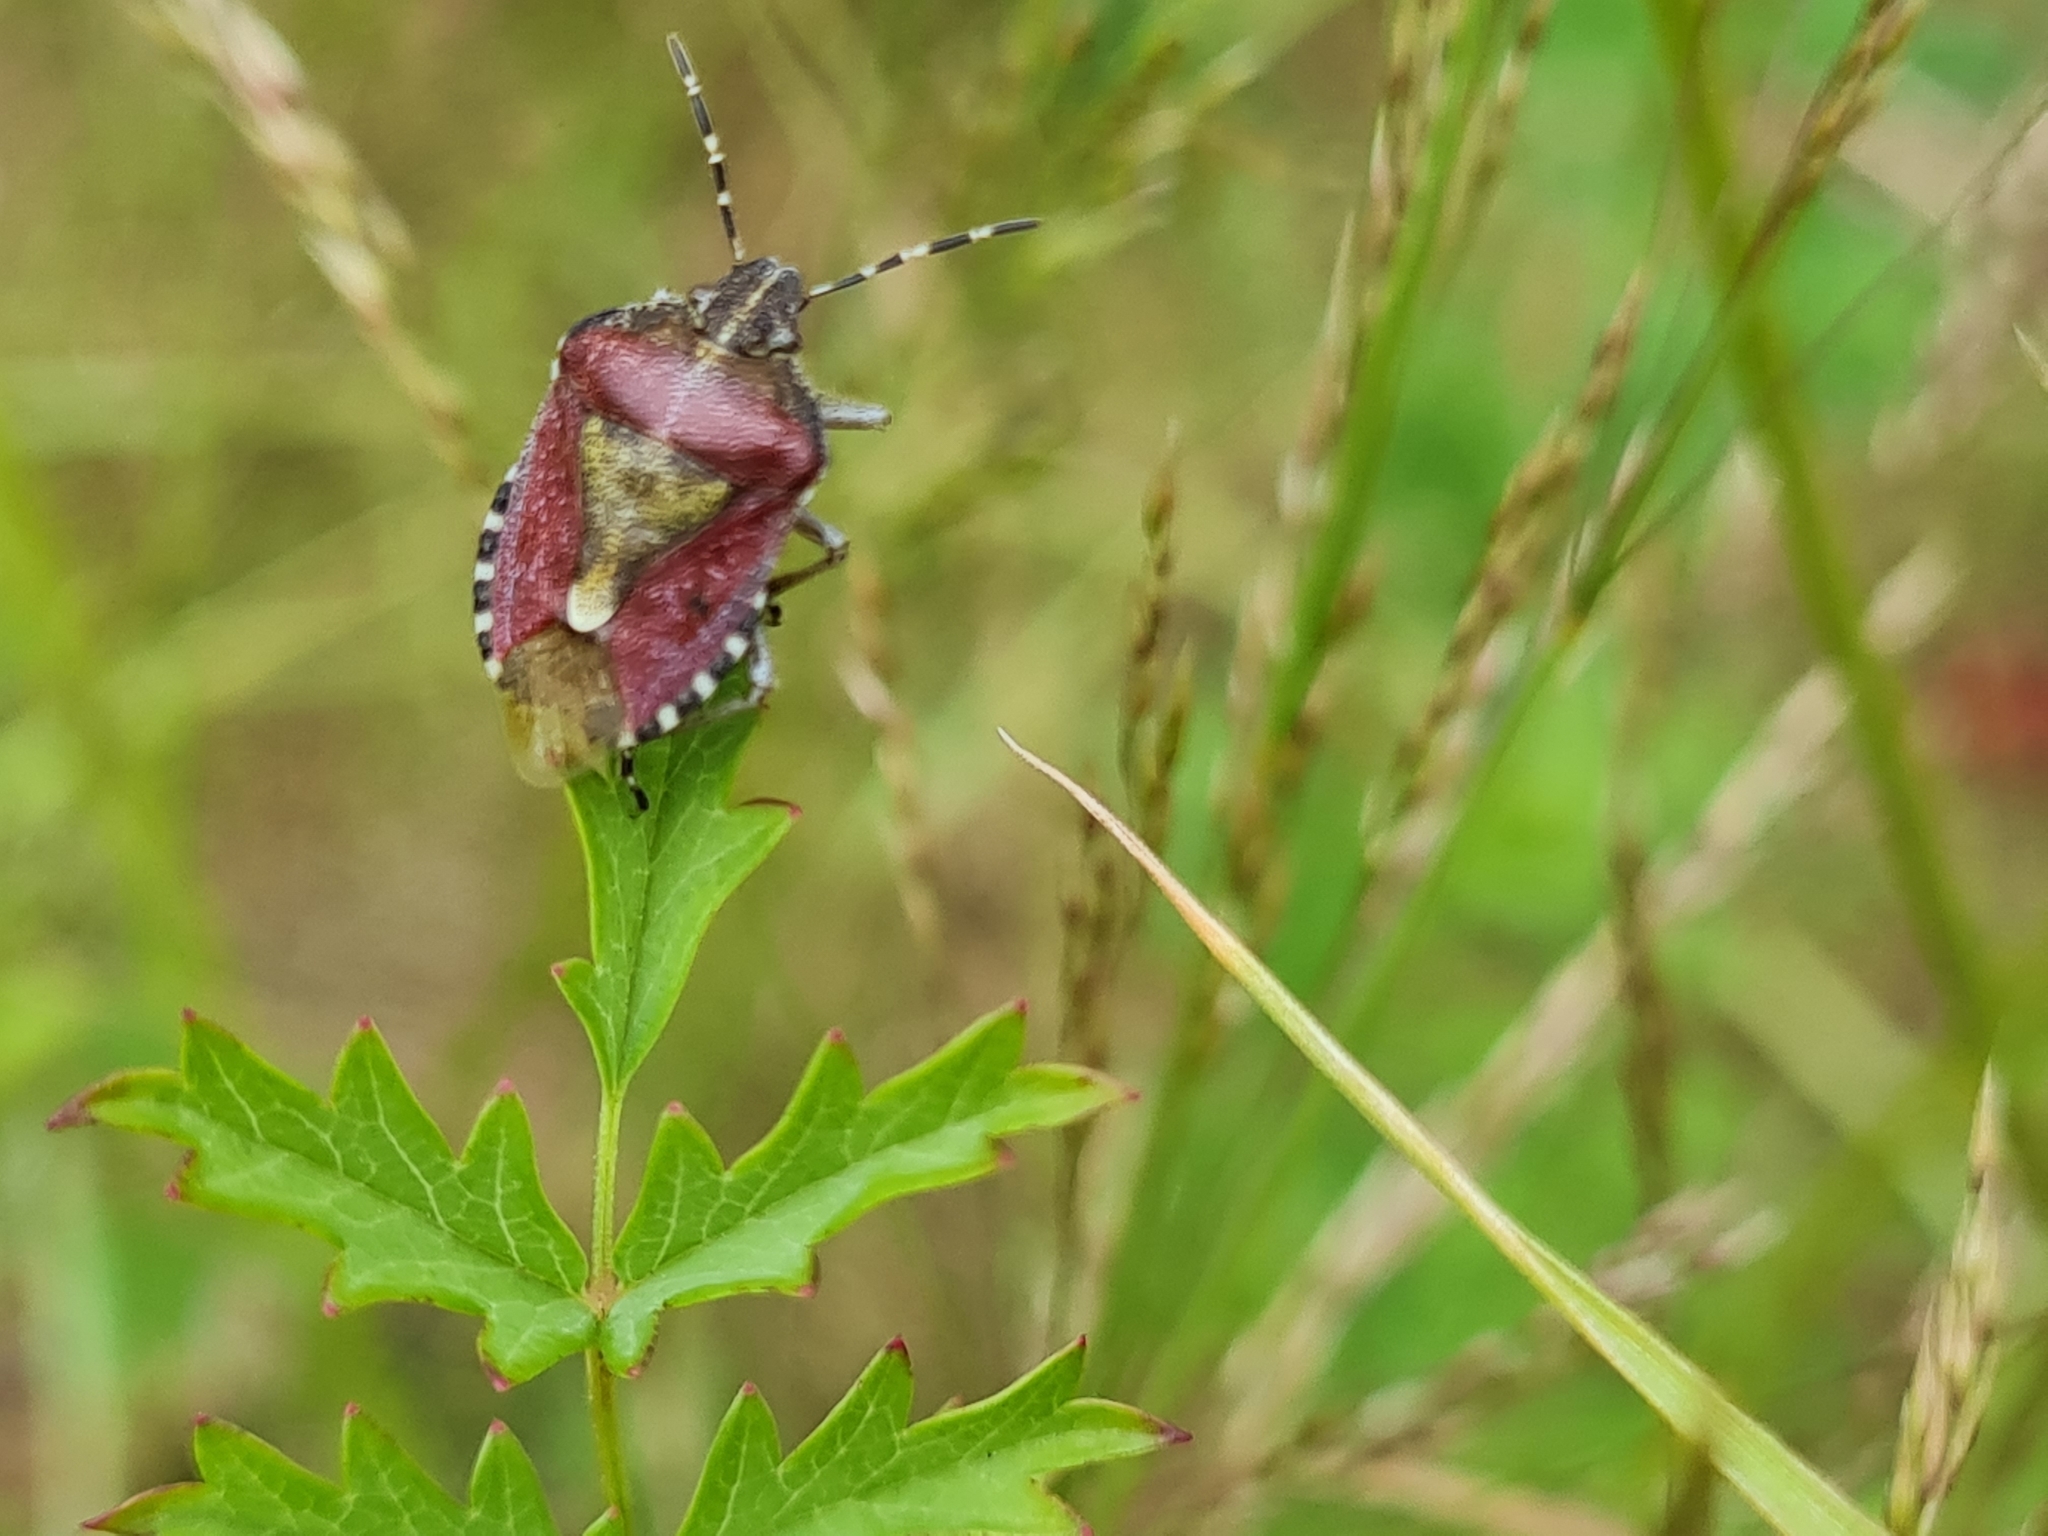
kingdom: Animalia
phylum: Arthropoda
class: Insecta
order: Hemiptera
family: Pentatomidae
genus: Dolycoris
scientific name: Dolycoris baccarum
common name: Sloe bug
